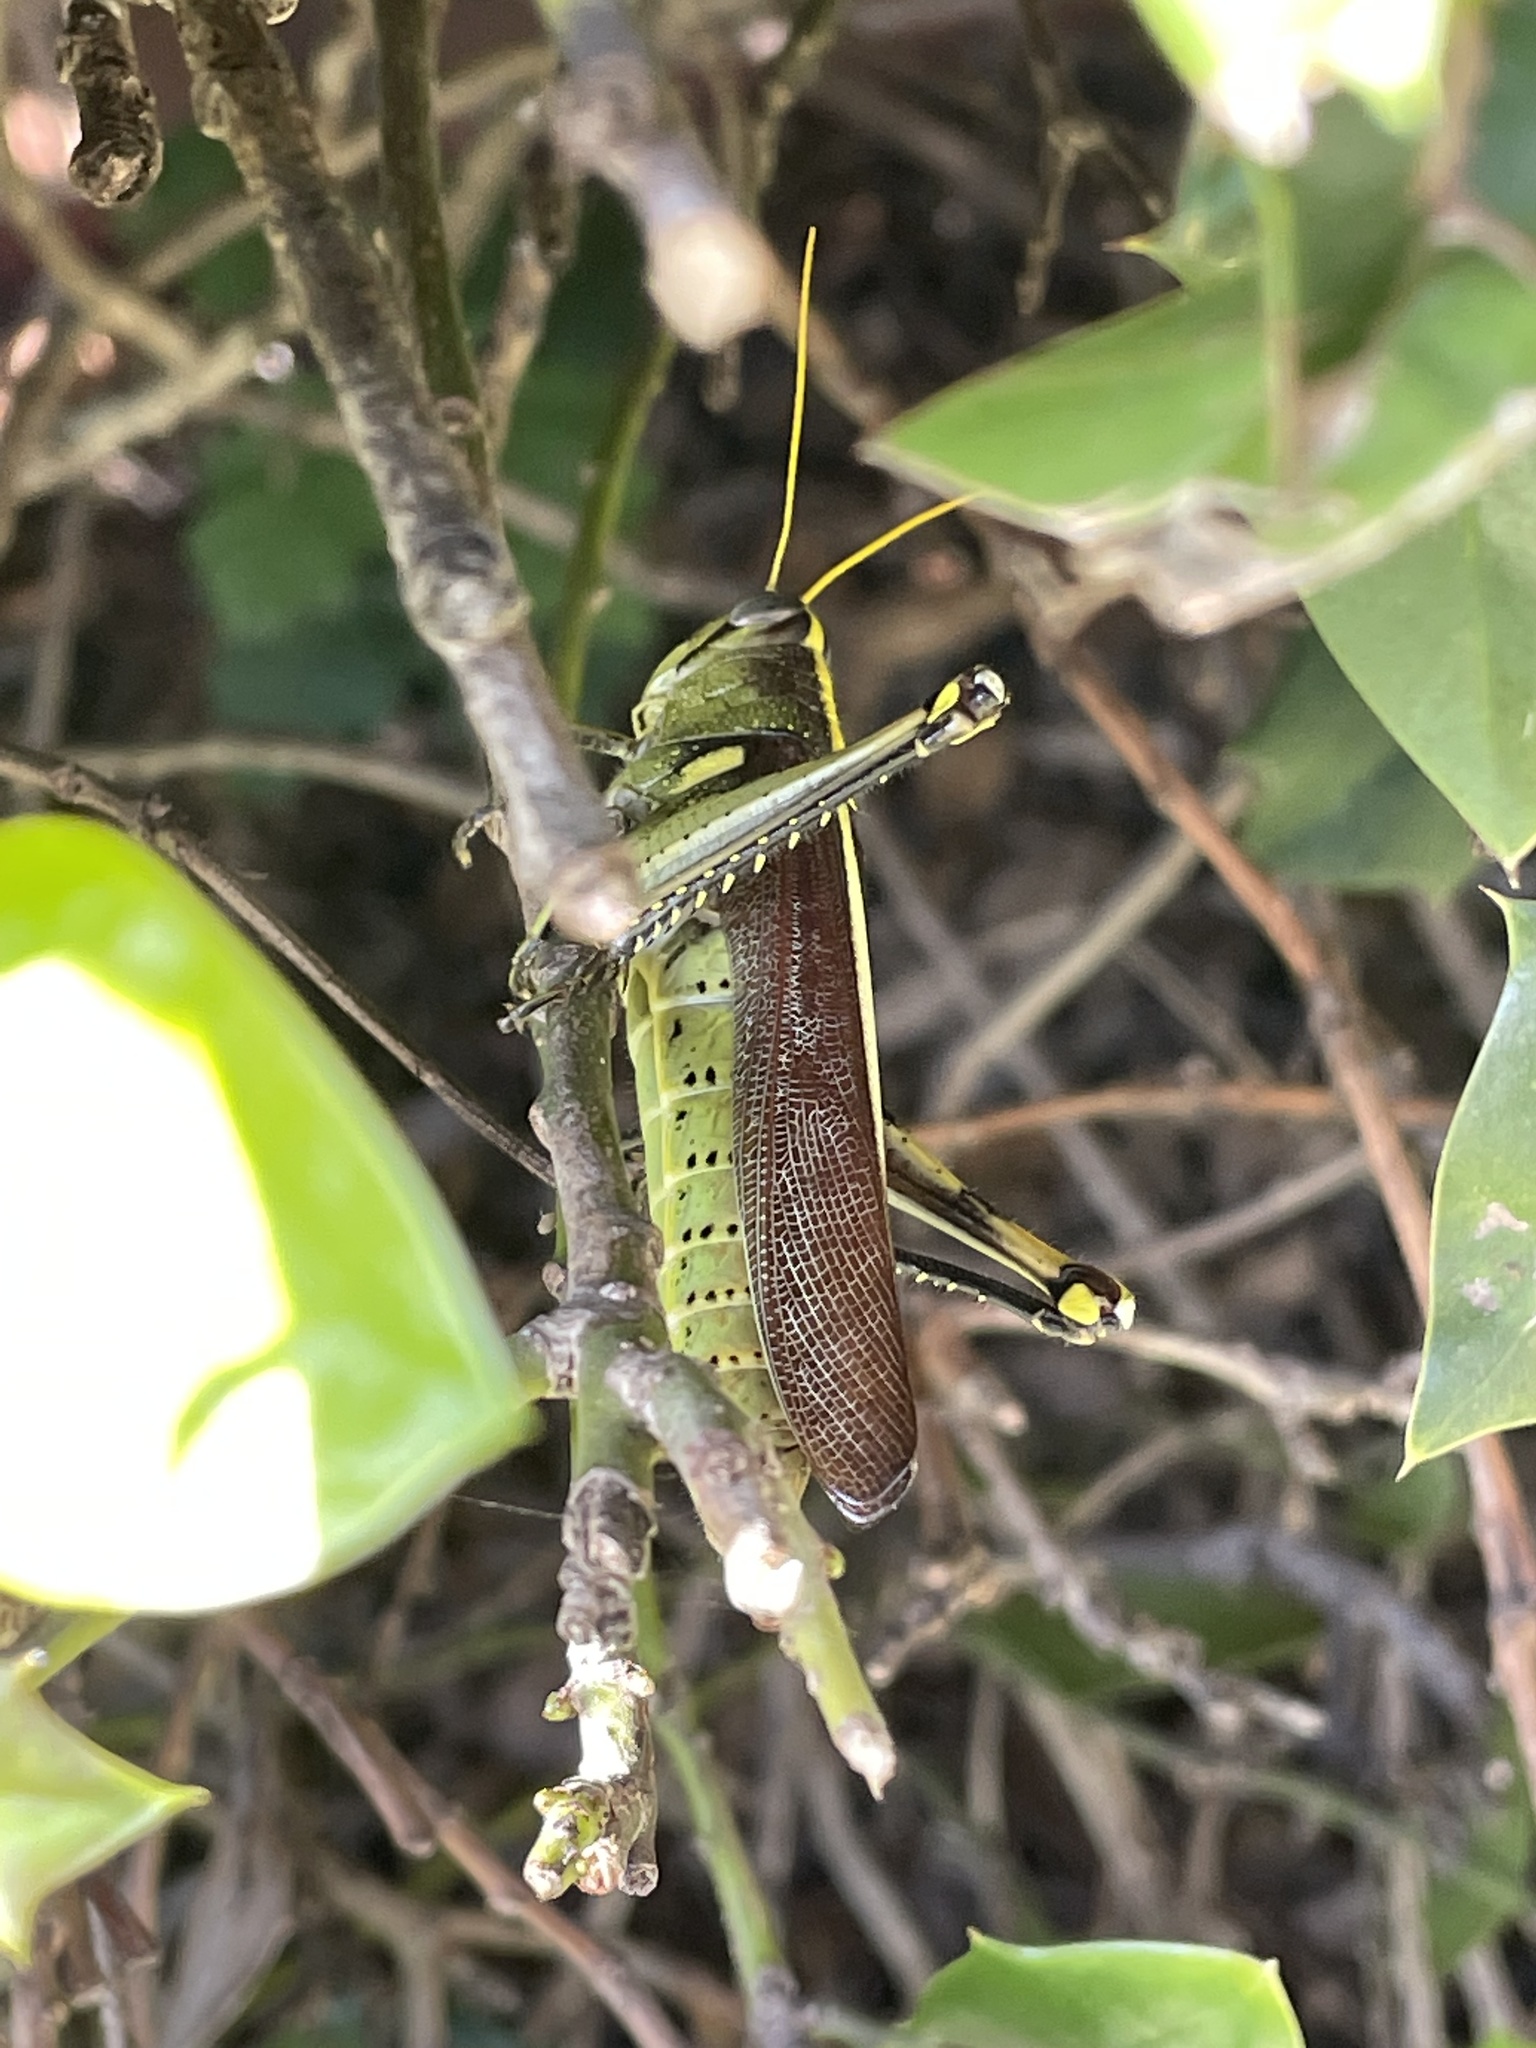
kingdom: Animalia
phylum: Arthropoda
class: Insecta
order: Orthoptera
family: Acrididae
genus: Schistocerca
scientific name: Schistocerca obscura
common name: Obscure bird grasshopper
